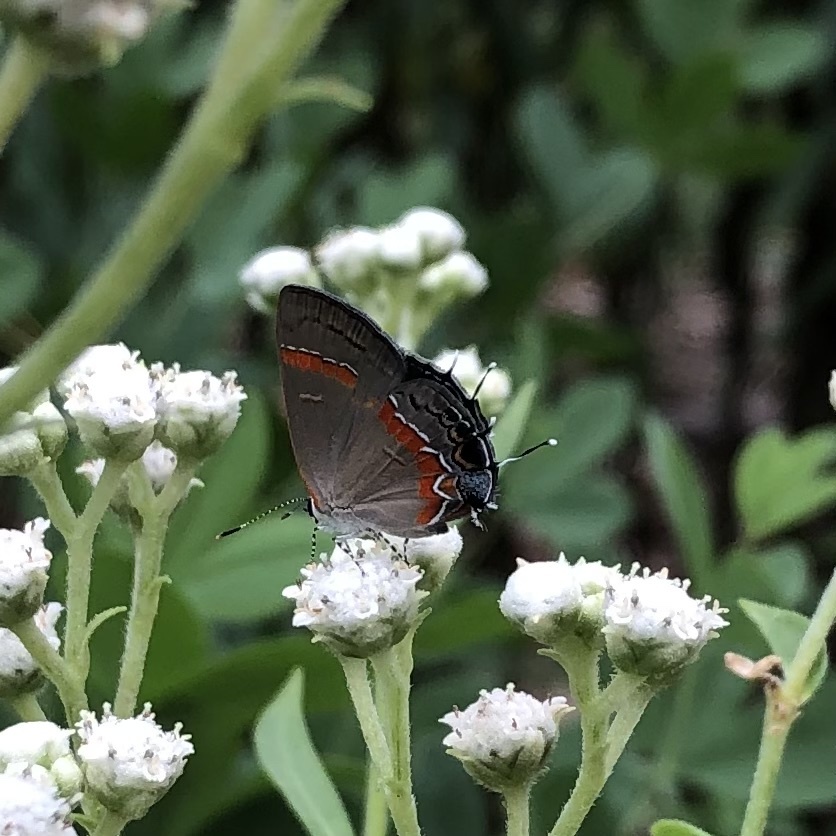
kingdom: Animalia
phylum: Arthropoda
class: Insecta
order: Lepidoptera
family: Lycaenidae
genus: Calycopis
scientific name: Calycopis cecrops
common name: Red-banded hairstreak
